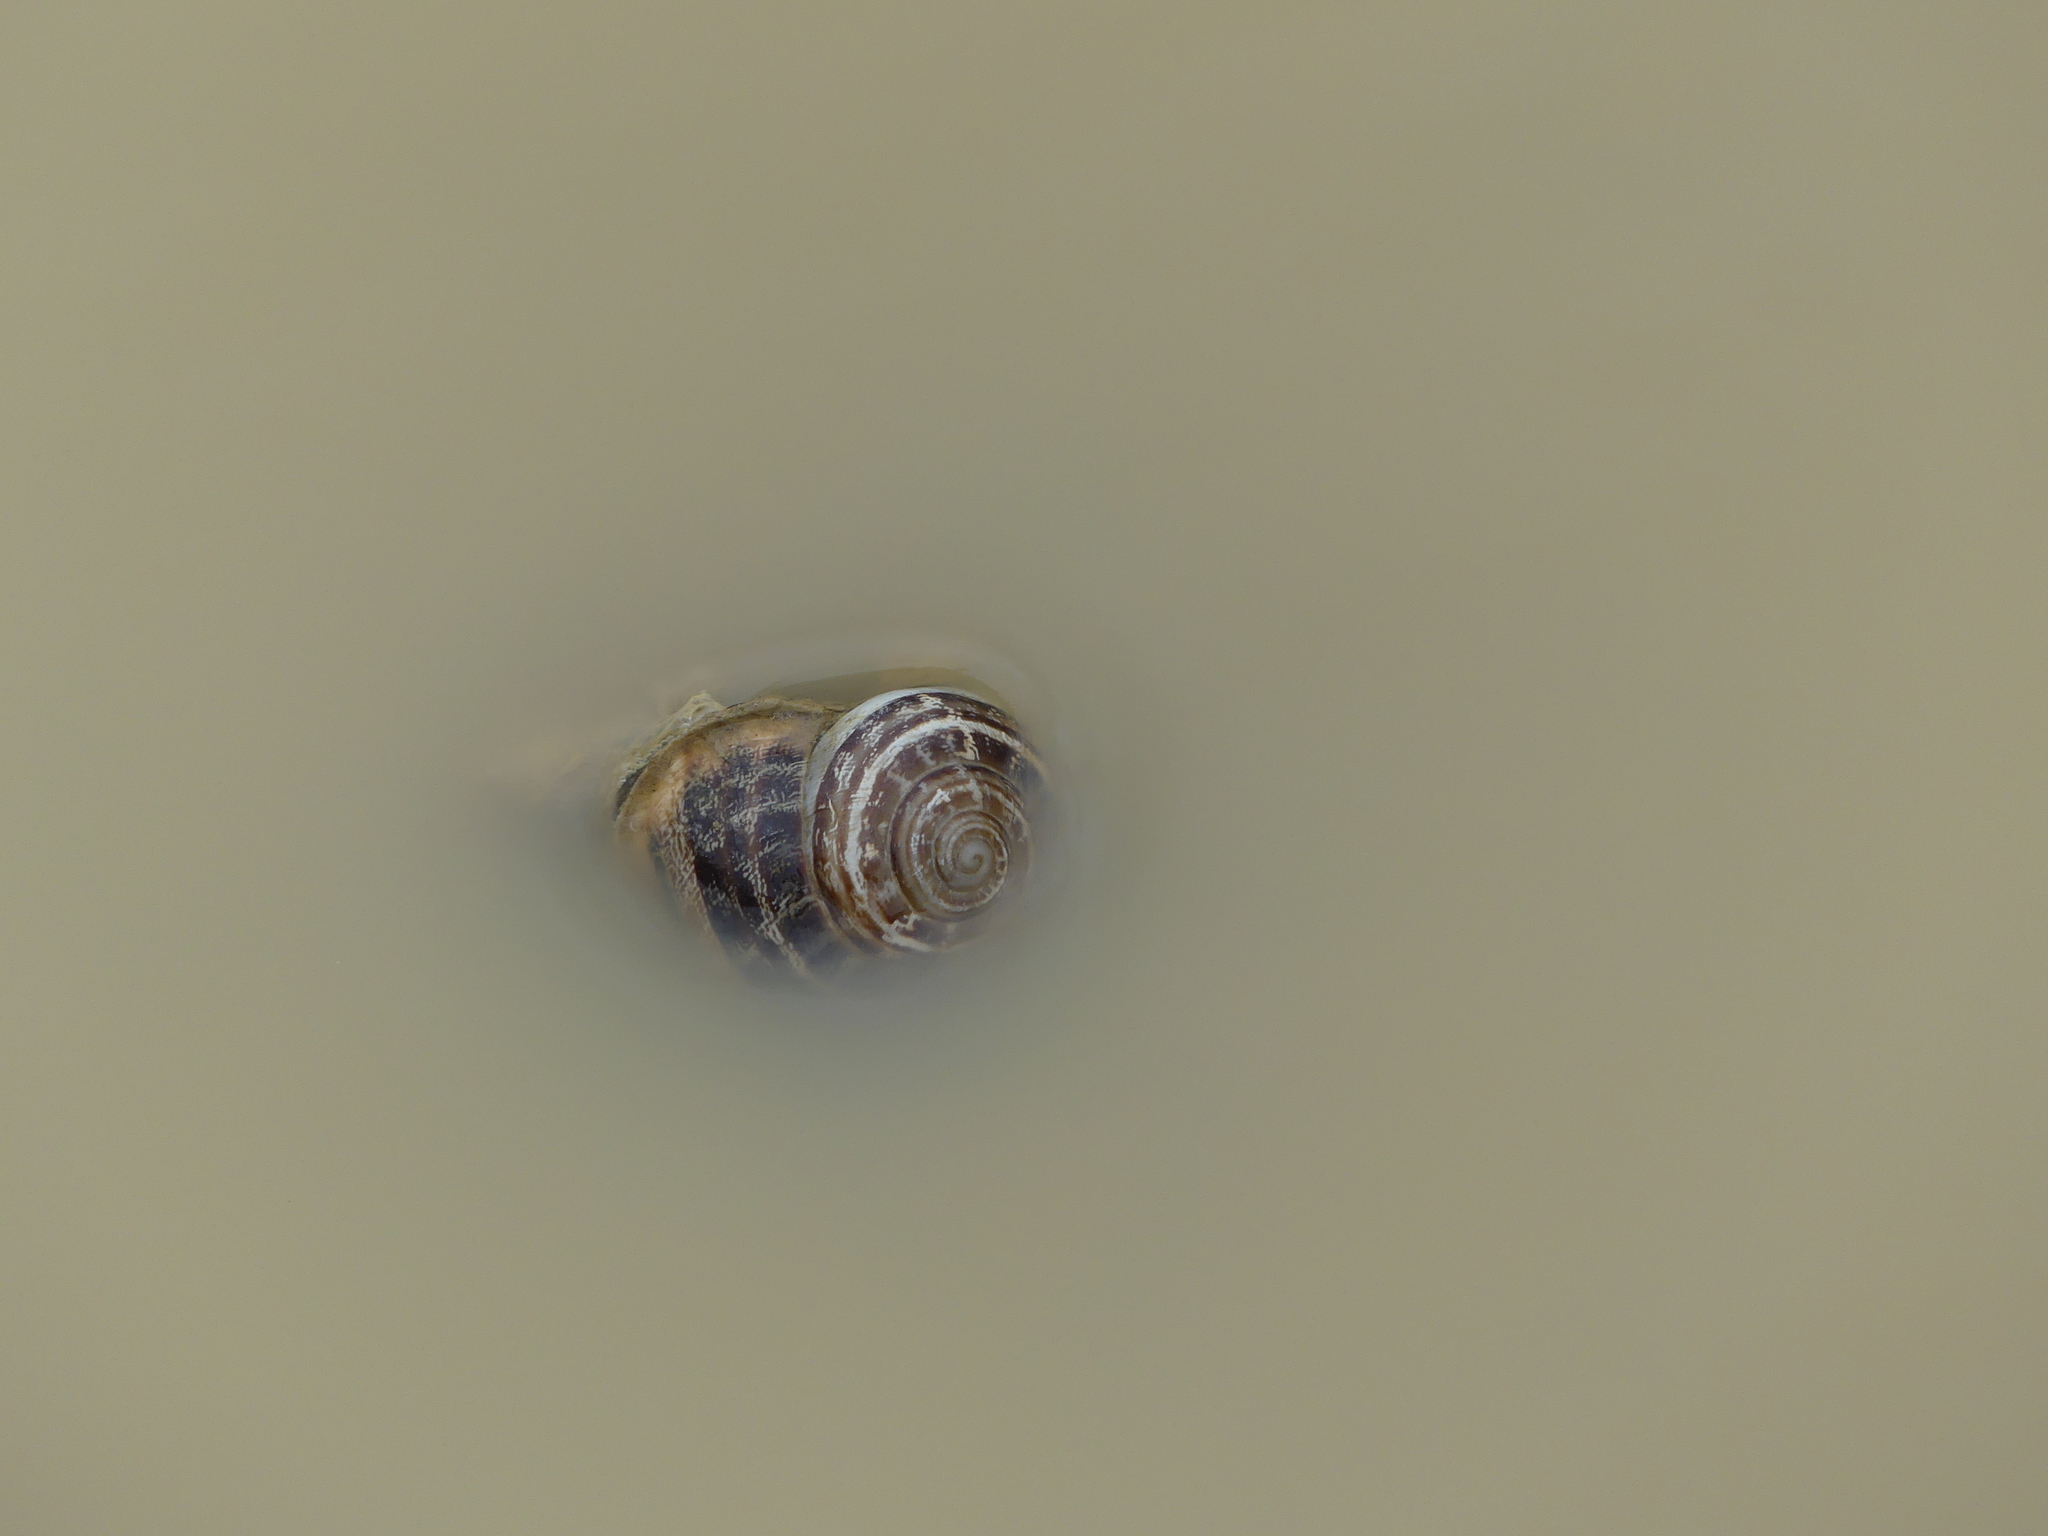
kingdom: Animalia
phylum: Mollusca
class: Gastropoda
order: Stylommatophora
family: Helicidae
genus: Eobania
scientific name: Eobania vermiculata
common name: Chocolateband snail
